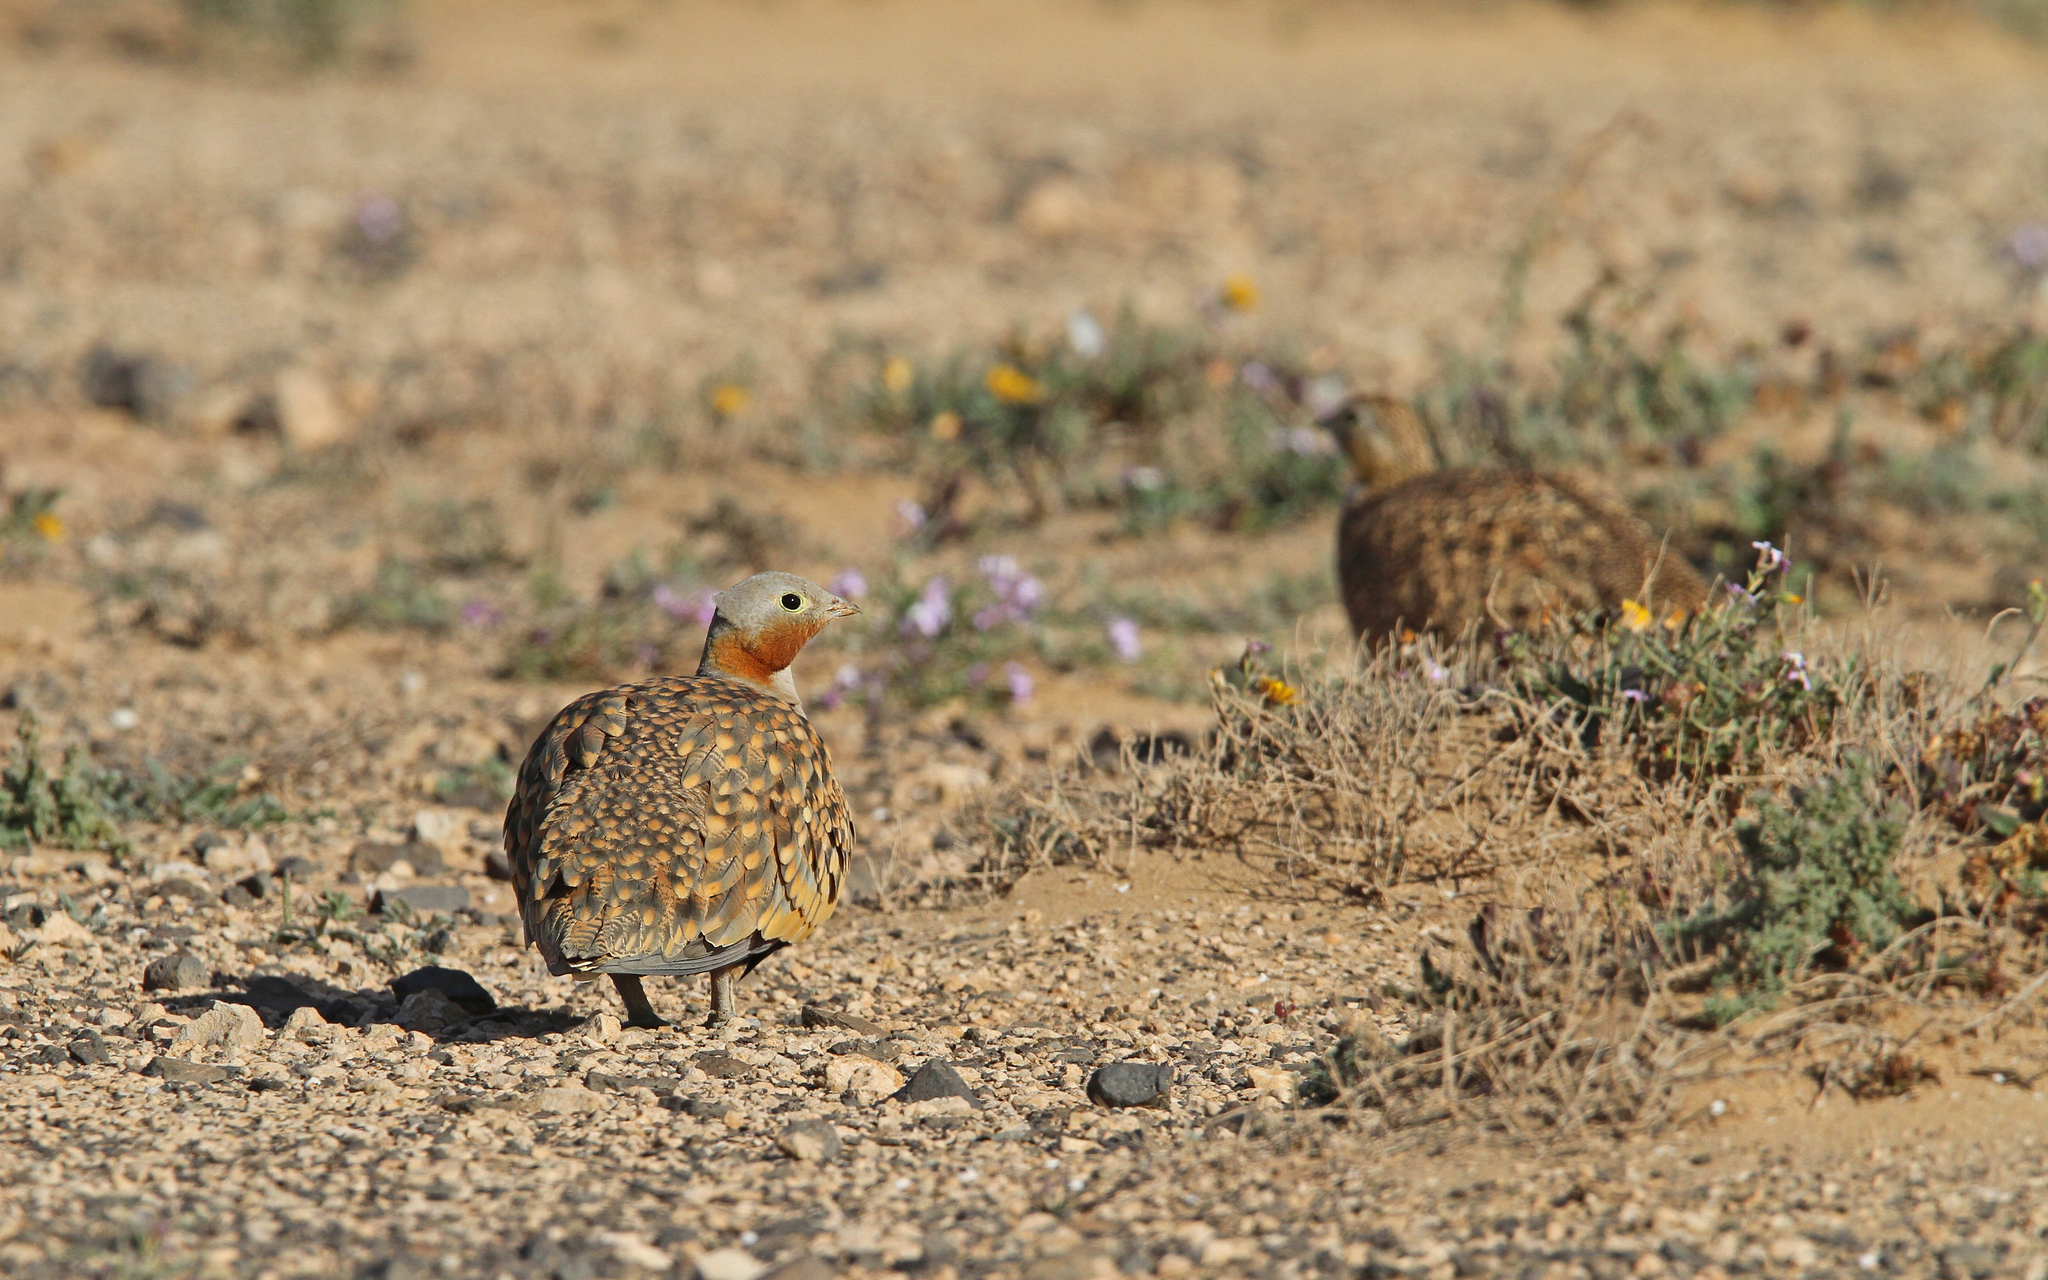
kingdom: Animalia
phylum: Chordata
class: Aves
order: Pteroclidiformes
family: Pteroclididae
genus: Pterocles
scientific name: Pterocles orientalis
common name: Black-bellied sandgrouse
